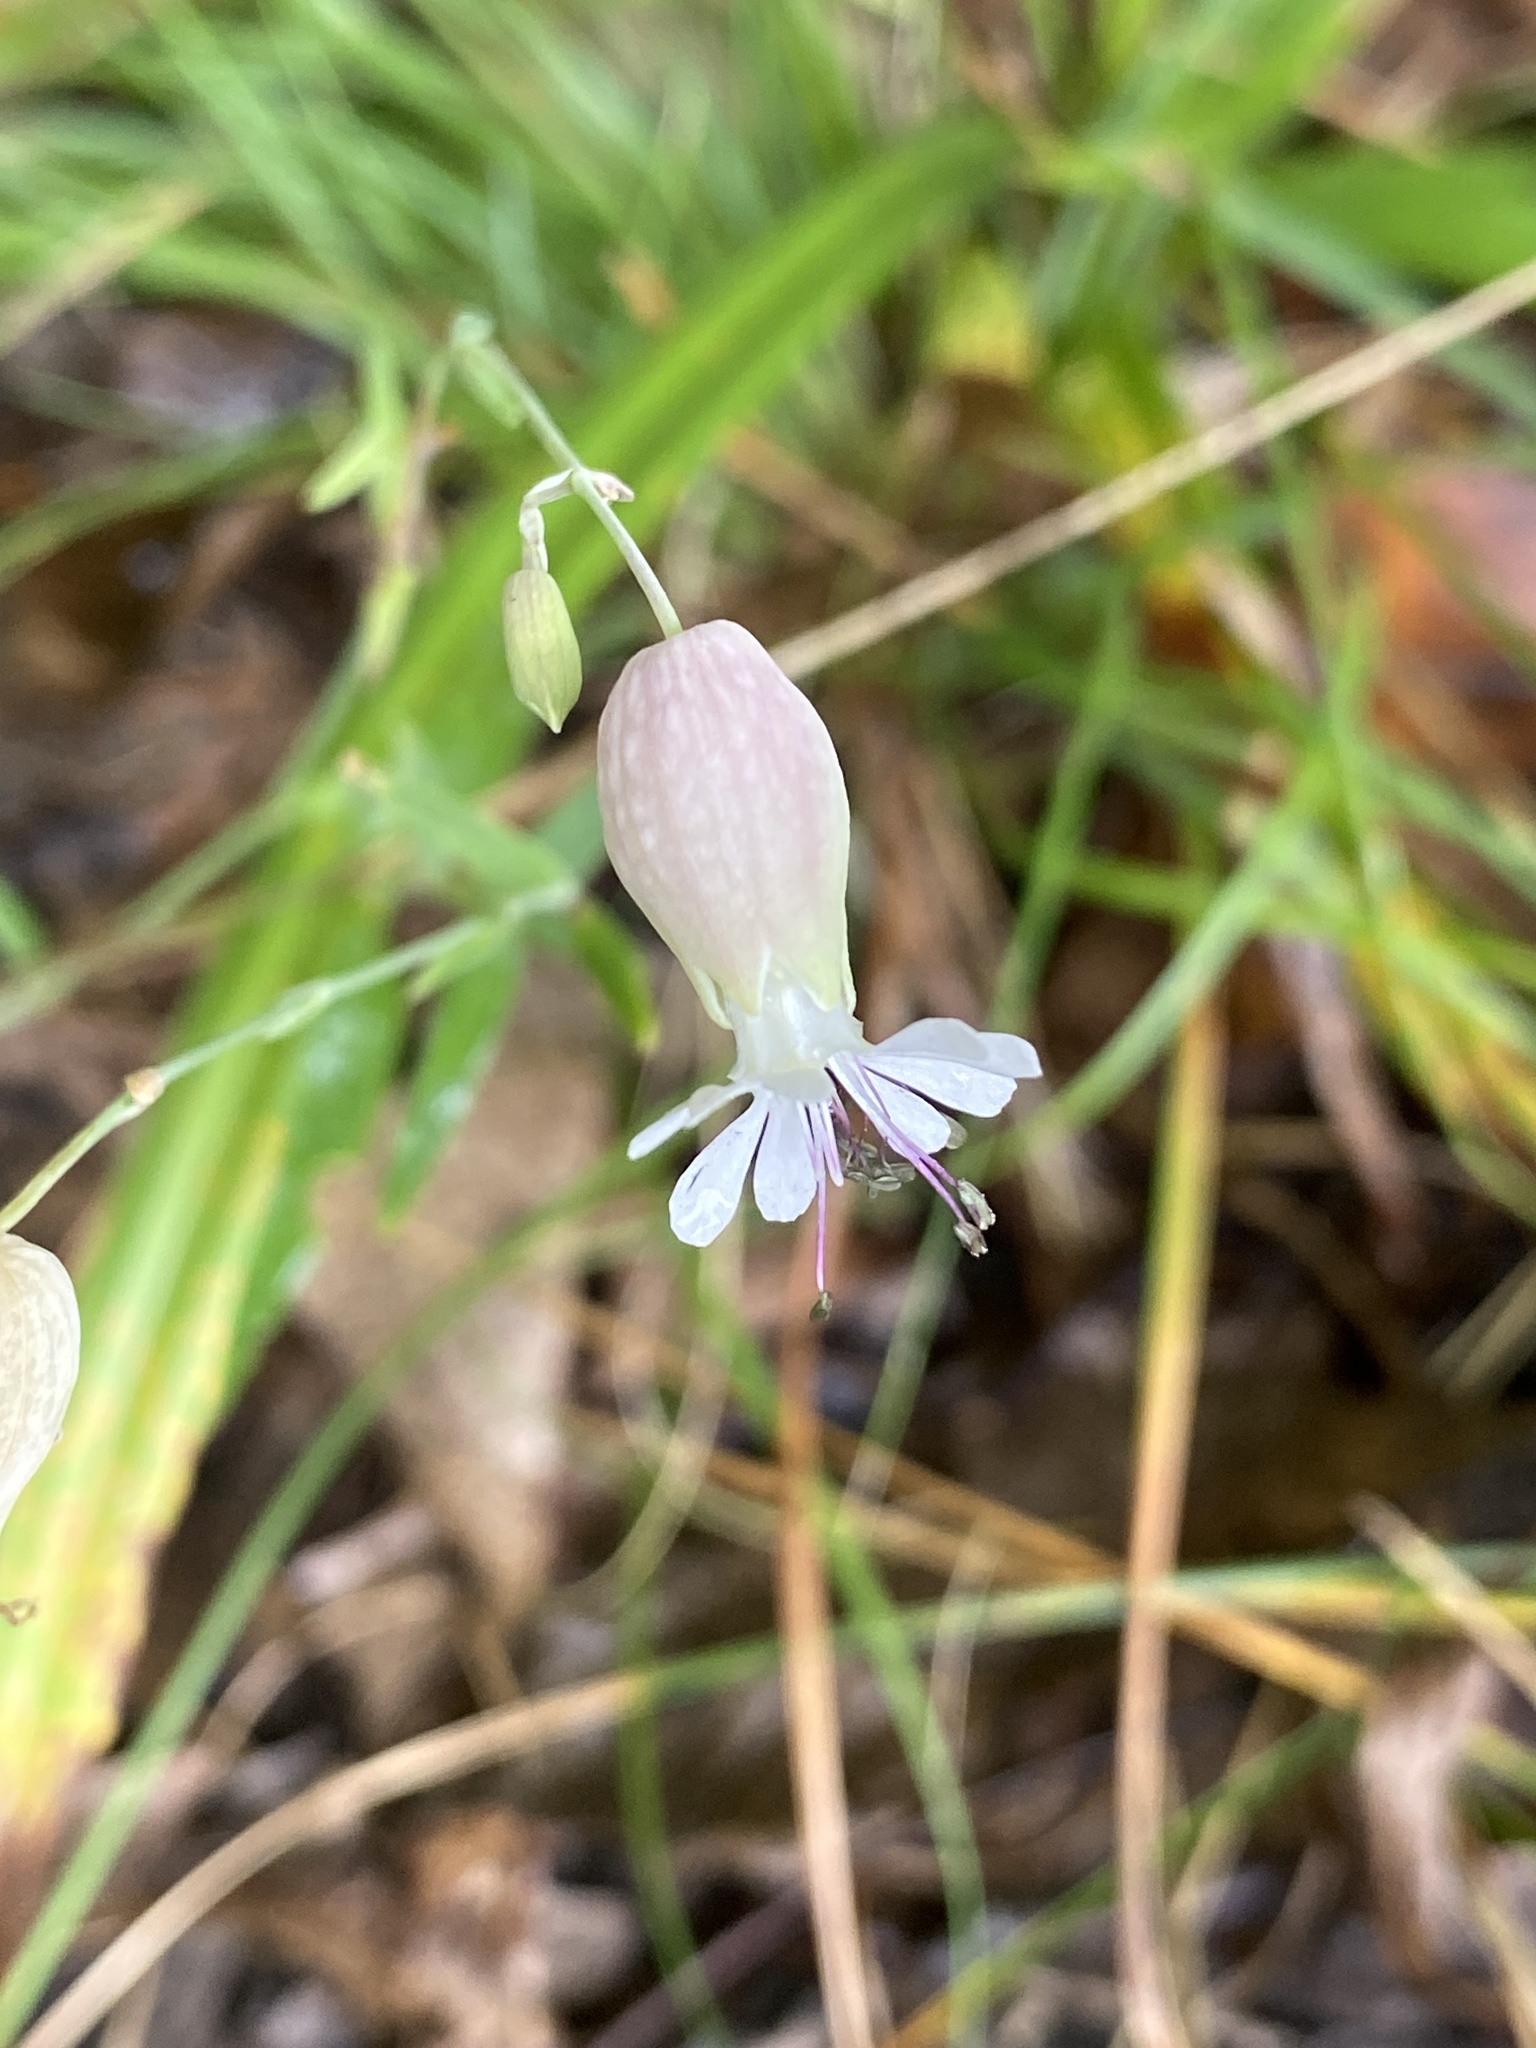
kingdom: Plantae
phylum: Tracheophyta
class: Magnoliopsida
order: Caryophyllales
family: Caryophyllaceae
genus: Silene
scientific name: Silene vulgaris
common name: Bladder campion
